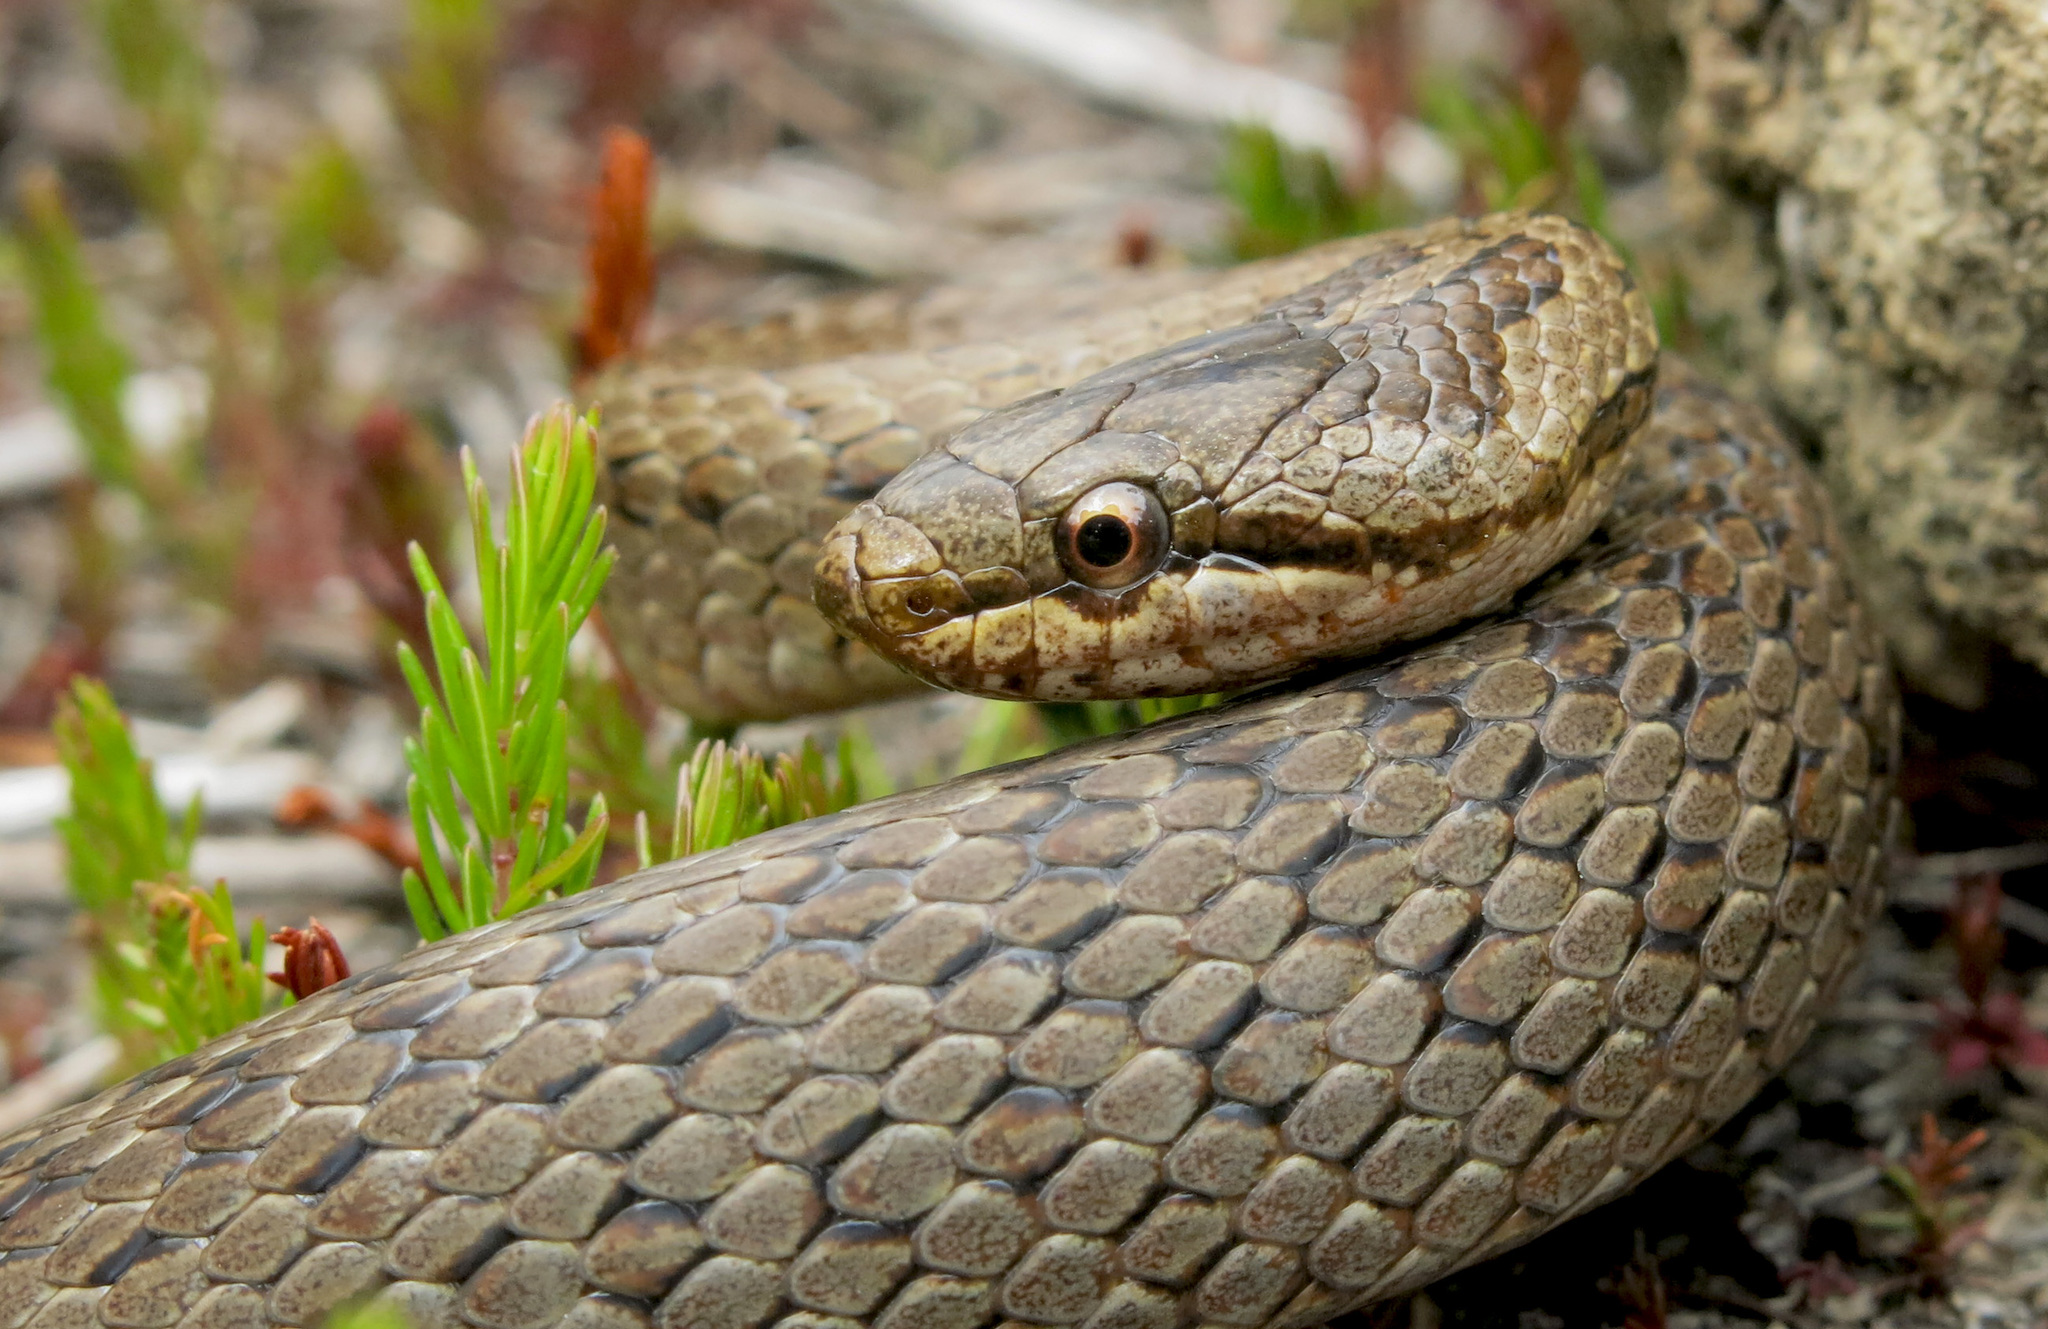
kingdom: Animalia
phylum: Chordata
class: Squamata
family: Colubridae
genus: Coronella
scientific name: Coronella austriaca
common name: Smooth snake
